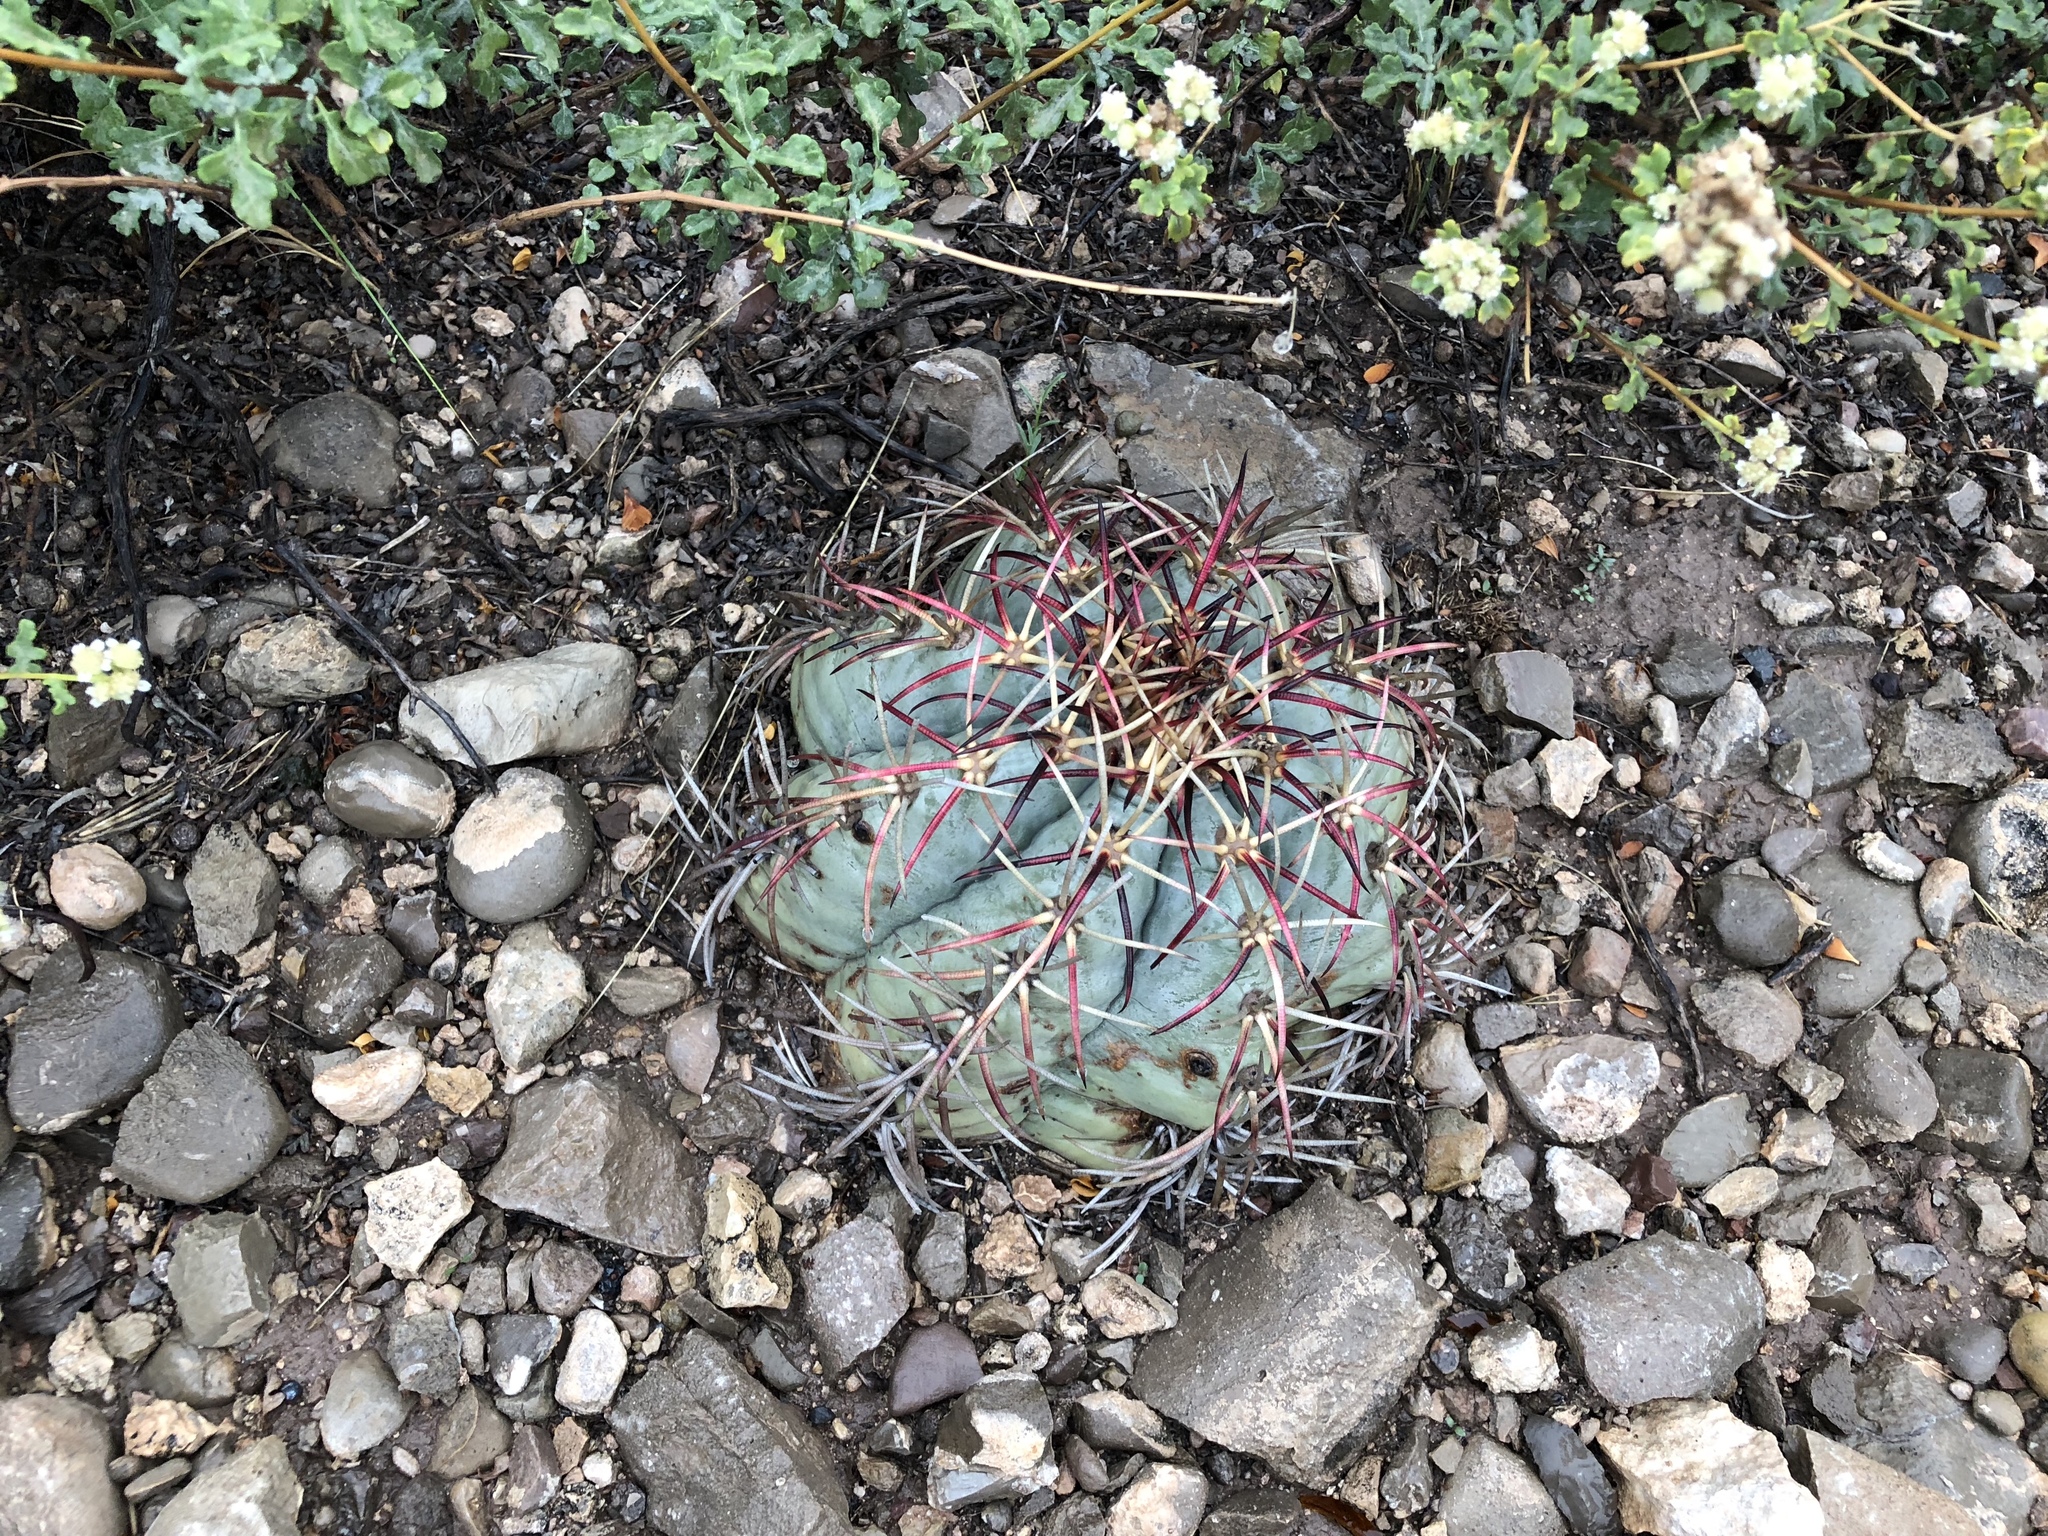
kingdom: Plantae
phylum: Tracheophyta
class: Magnoliopsida
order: Caryophyllales
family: Cactaceae
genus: Echinocactus
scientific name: Echinocactus horizonthalonius
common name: Devilshead
